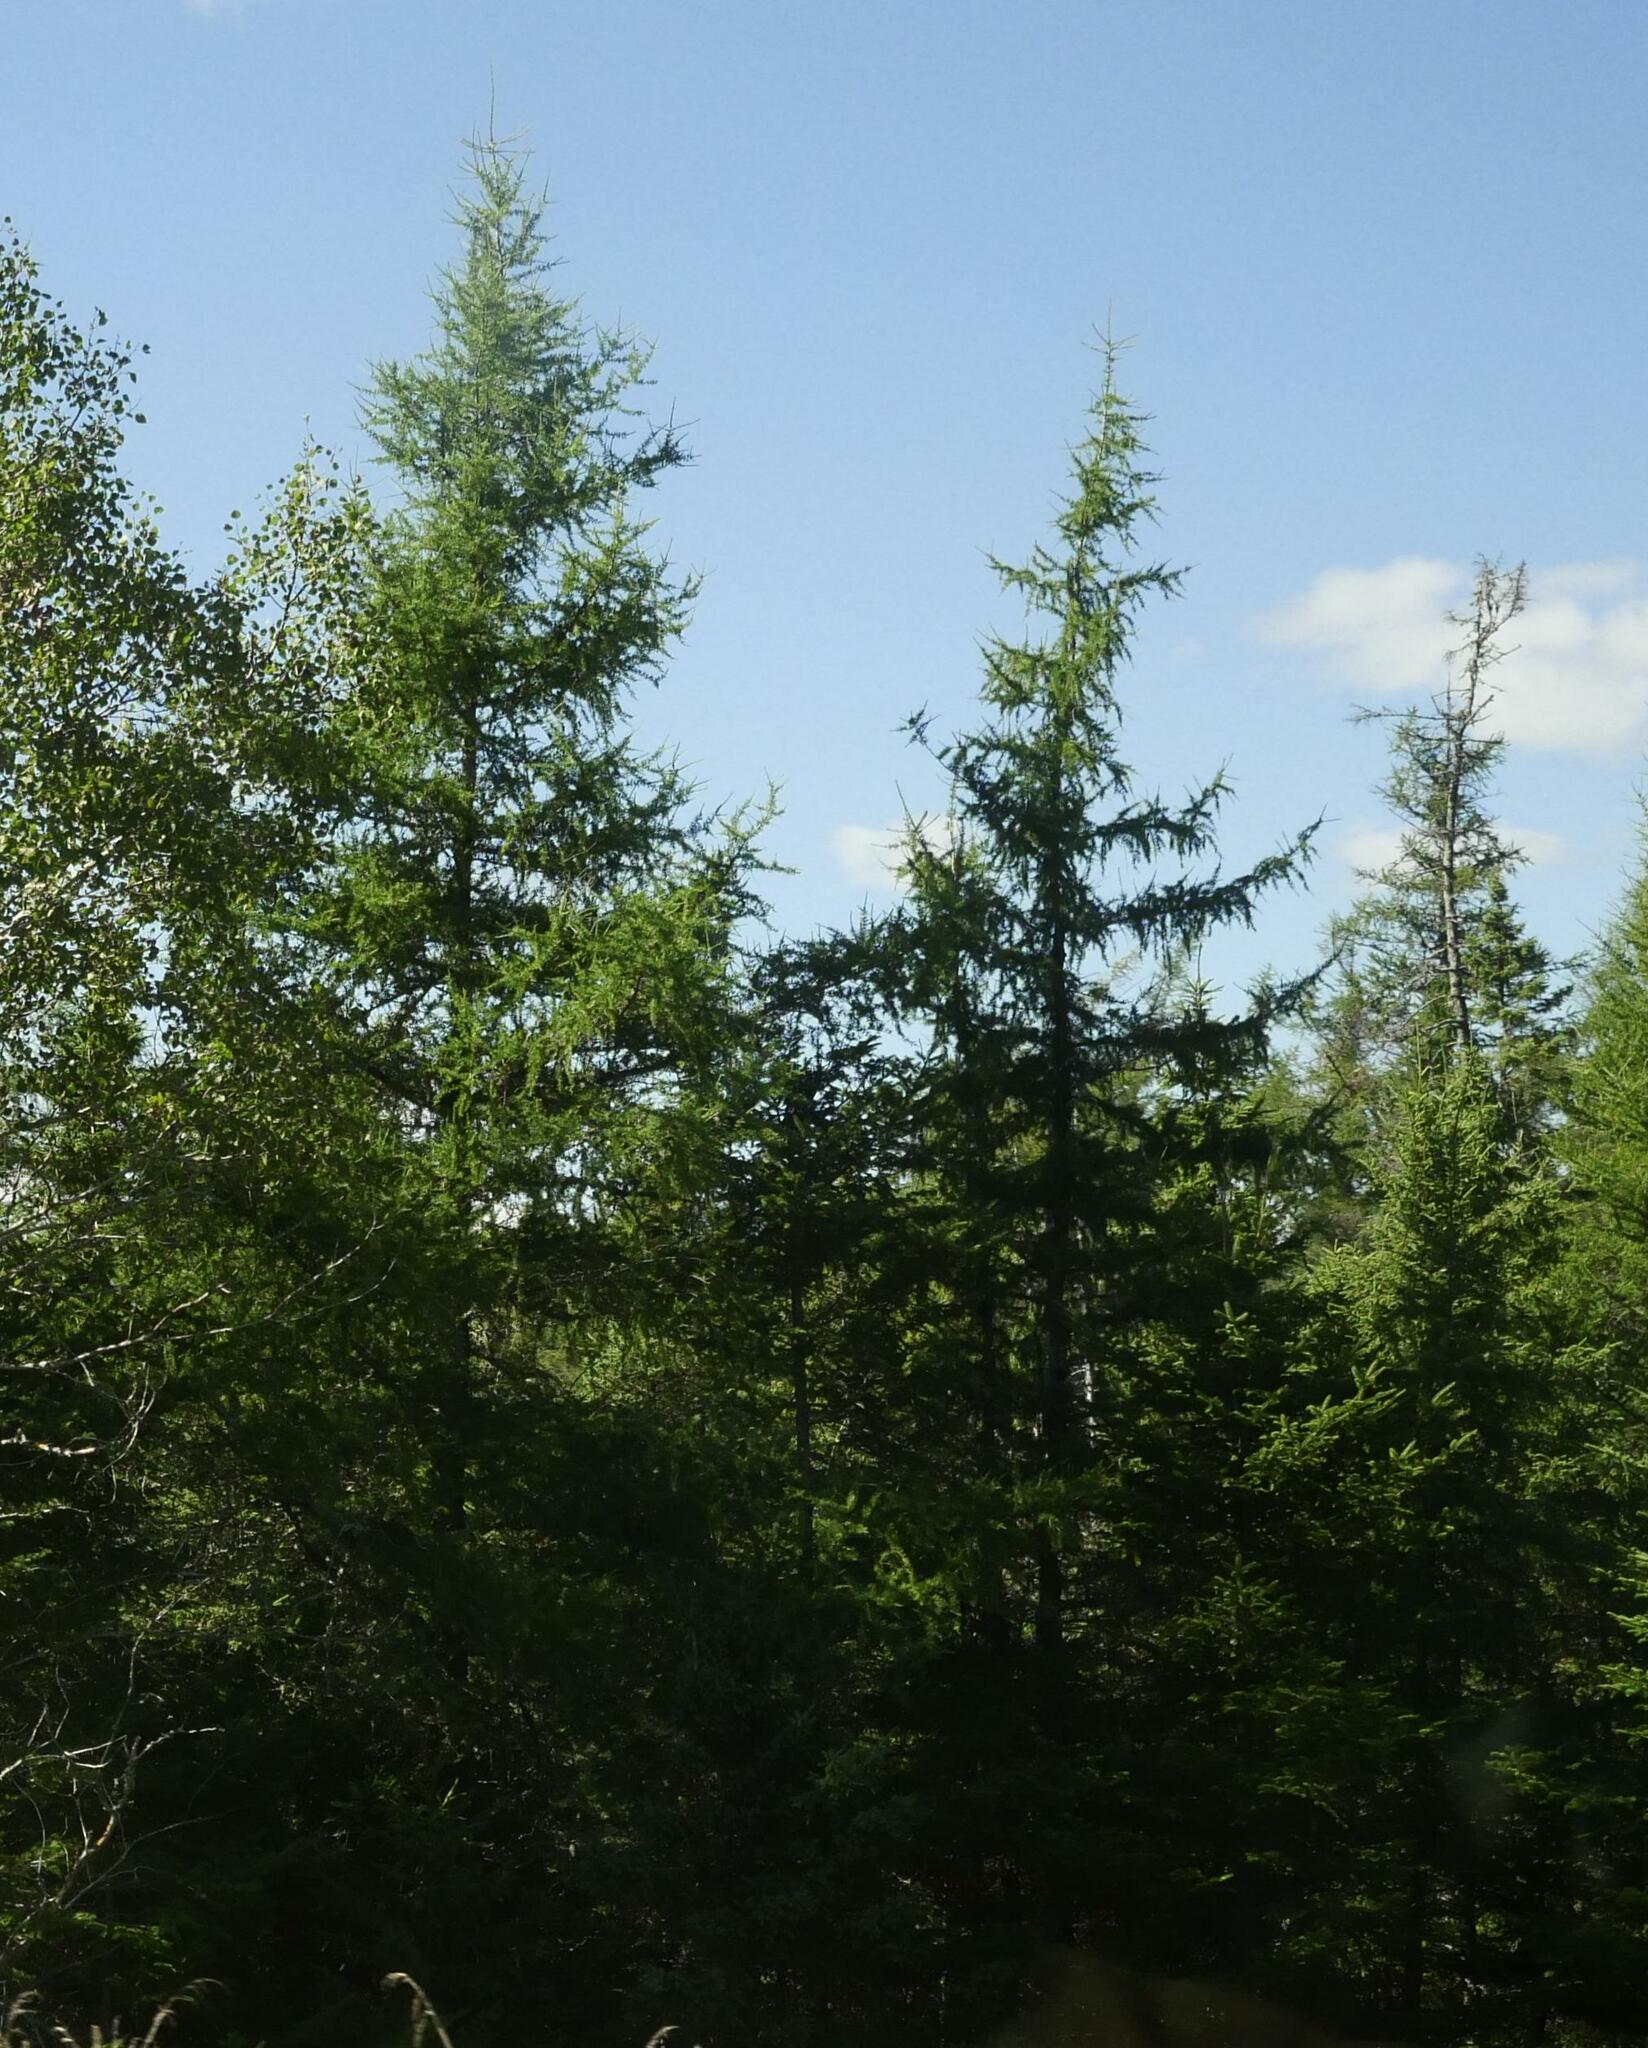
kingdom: Plantae
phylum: Tracheophyta
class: Pinopsida
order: Pinales
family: Pinaceae
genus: Larix
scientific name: Larix laricina
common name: American larch
